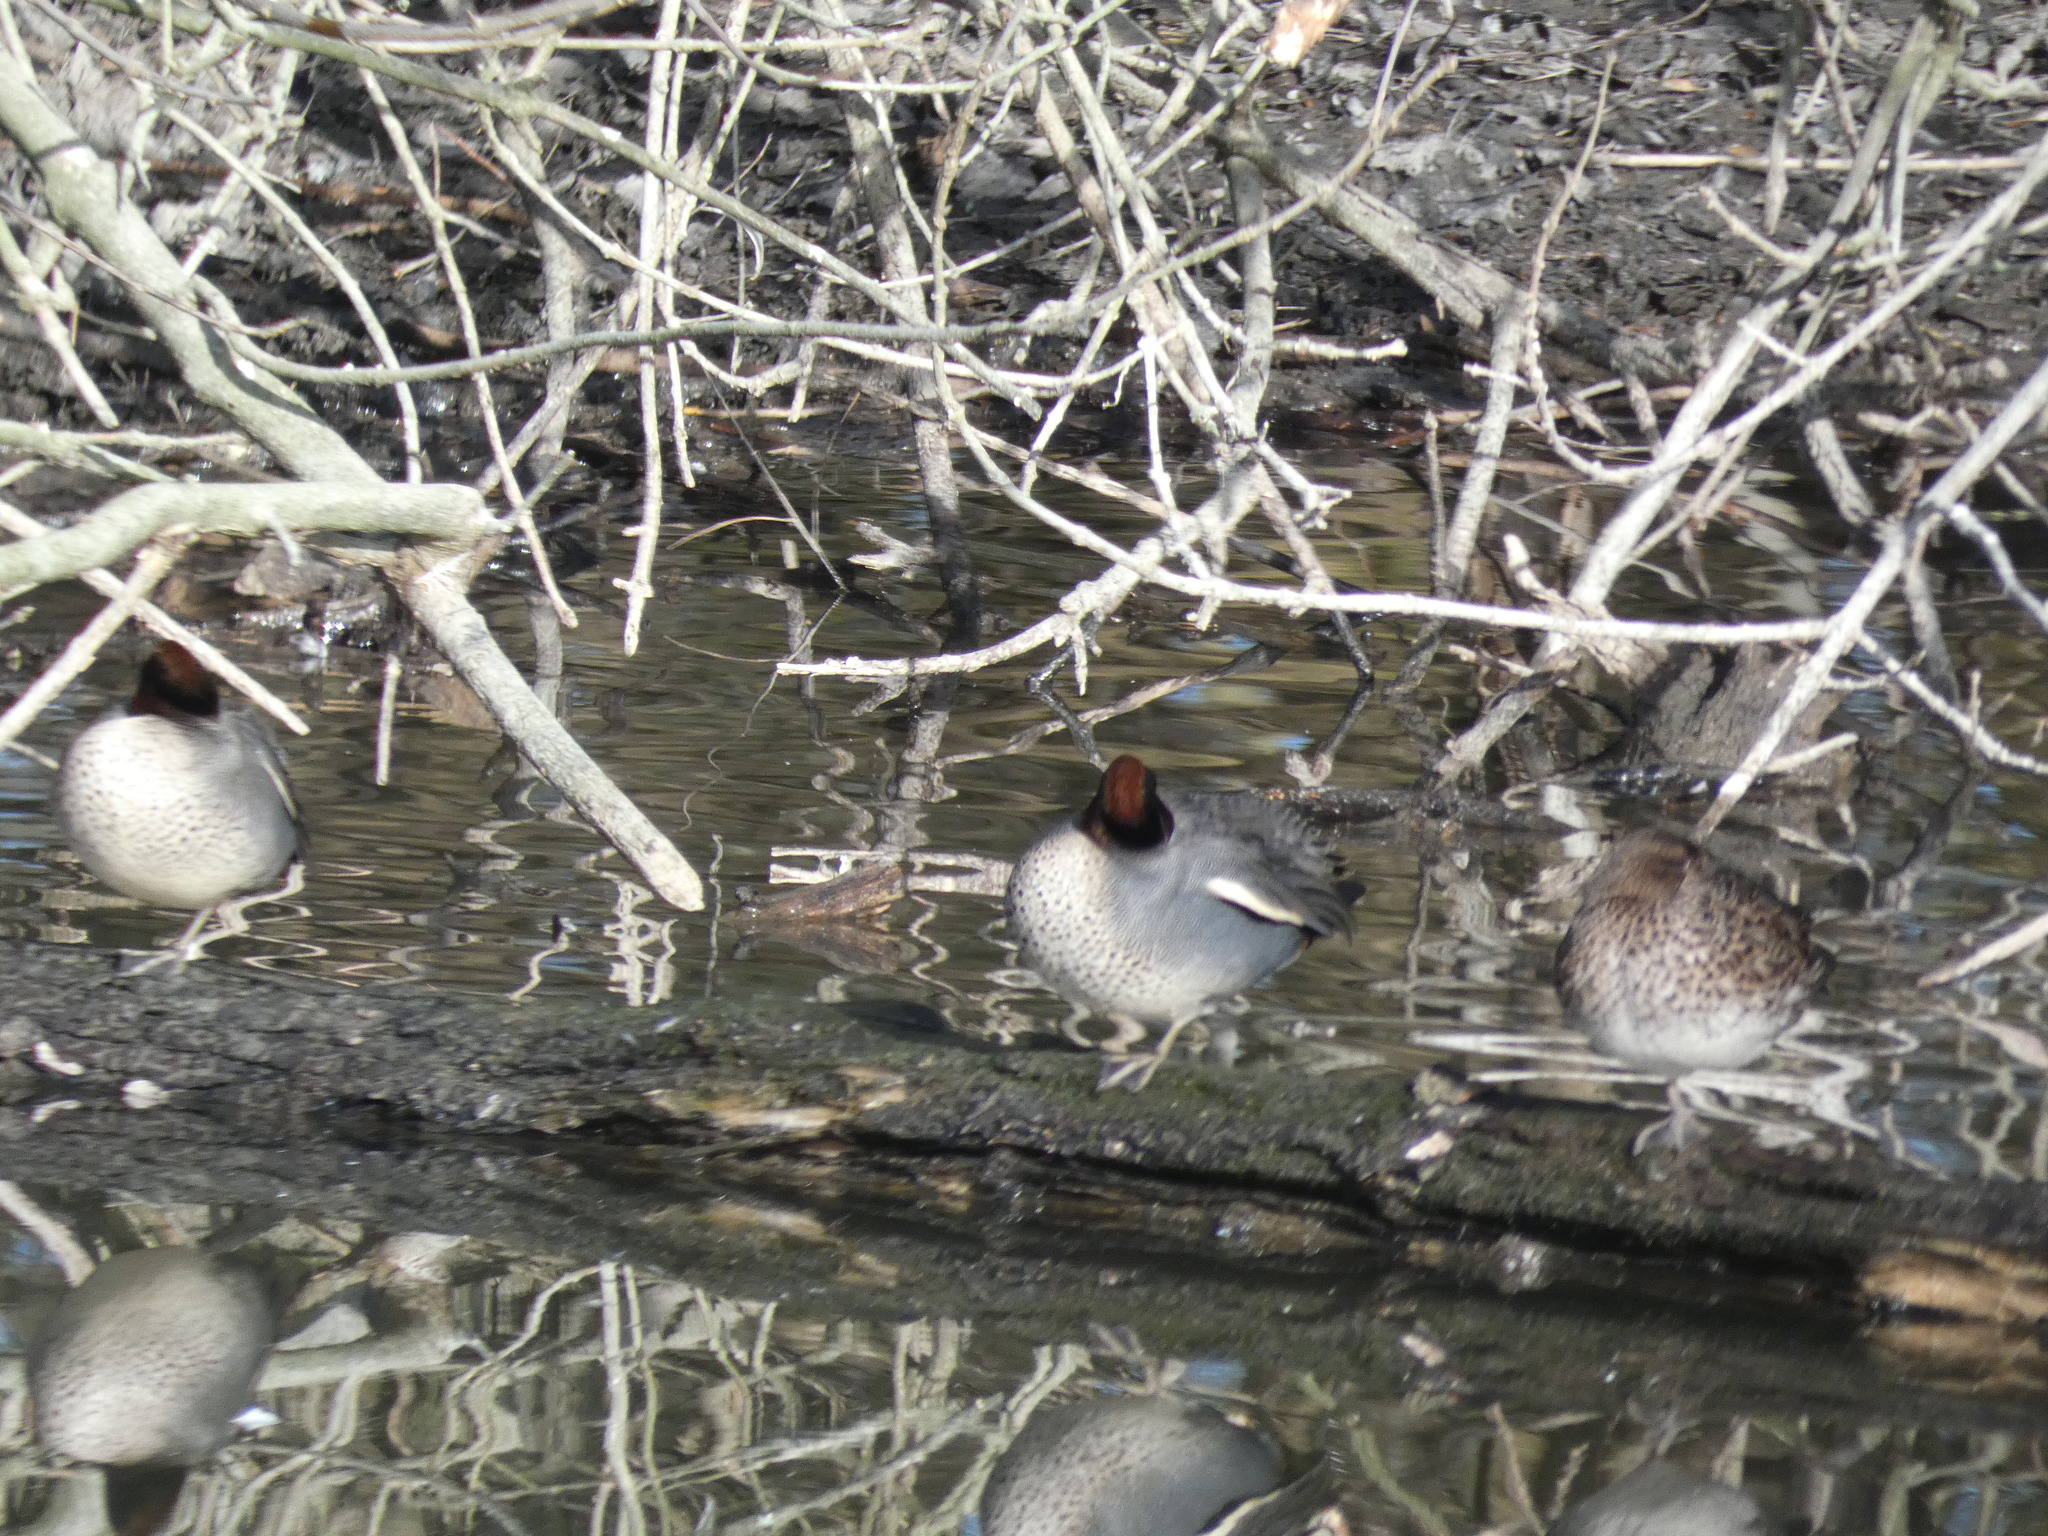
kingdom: Animalia
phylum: Chordata
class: Aves
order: Anseriformes
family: Anatidae
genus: Anas
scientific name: Anas crecca
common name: Eurasian teal
